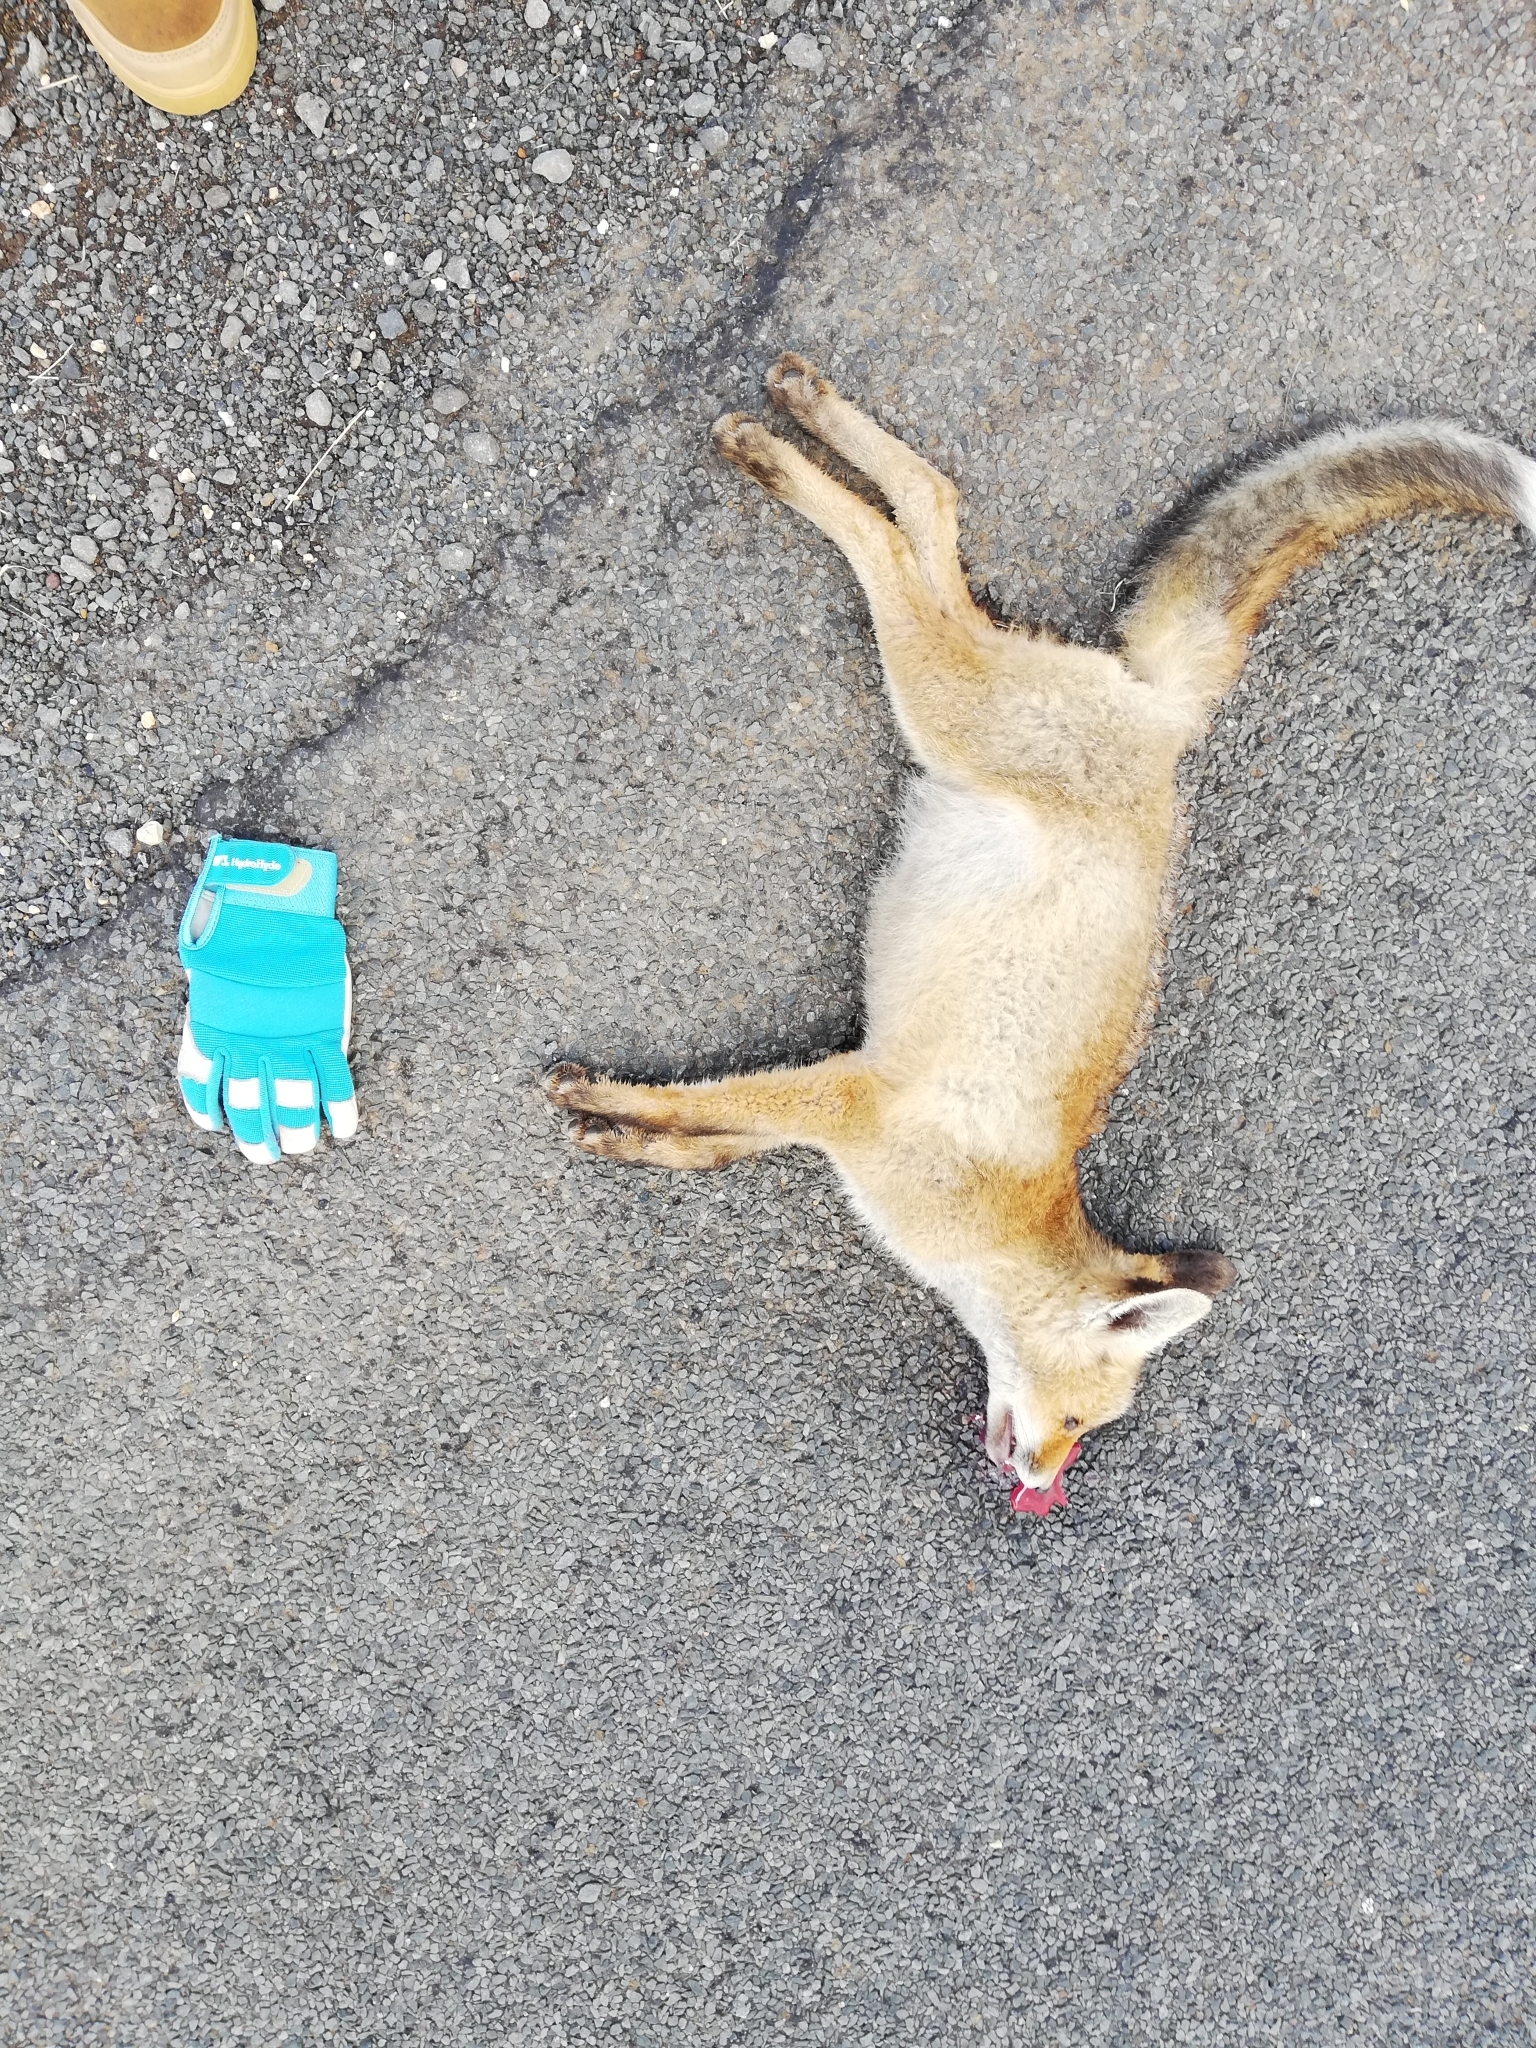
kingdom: Animalia
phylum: Chordata
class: Mammalia
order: Carnivora
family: Canidae
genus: Vulpes
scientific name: Vulpes vulpes
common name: Red fox
